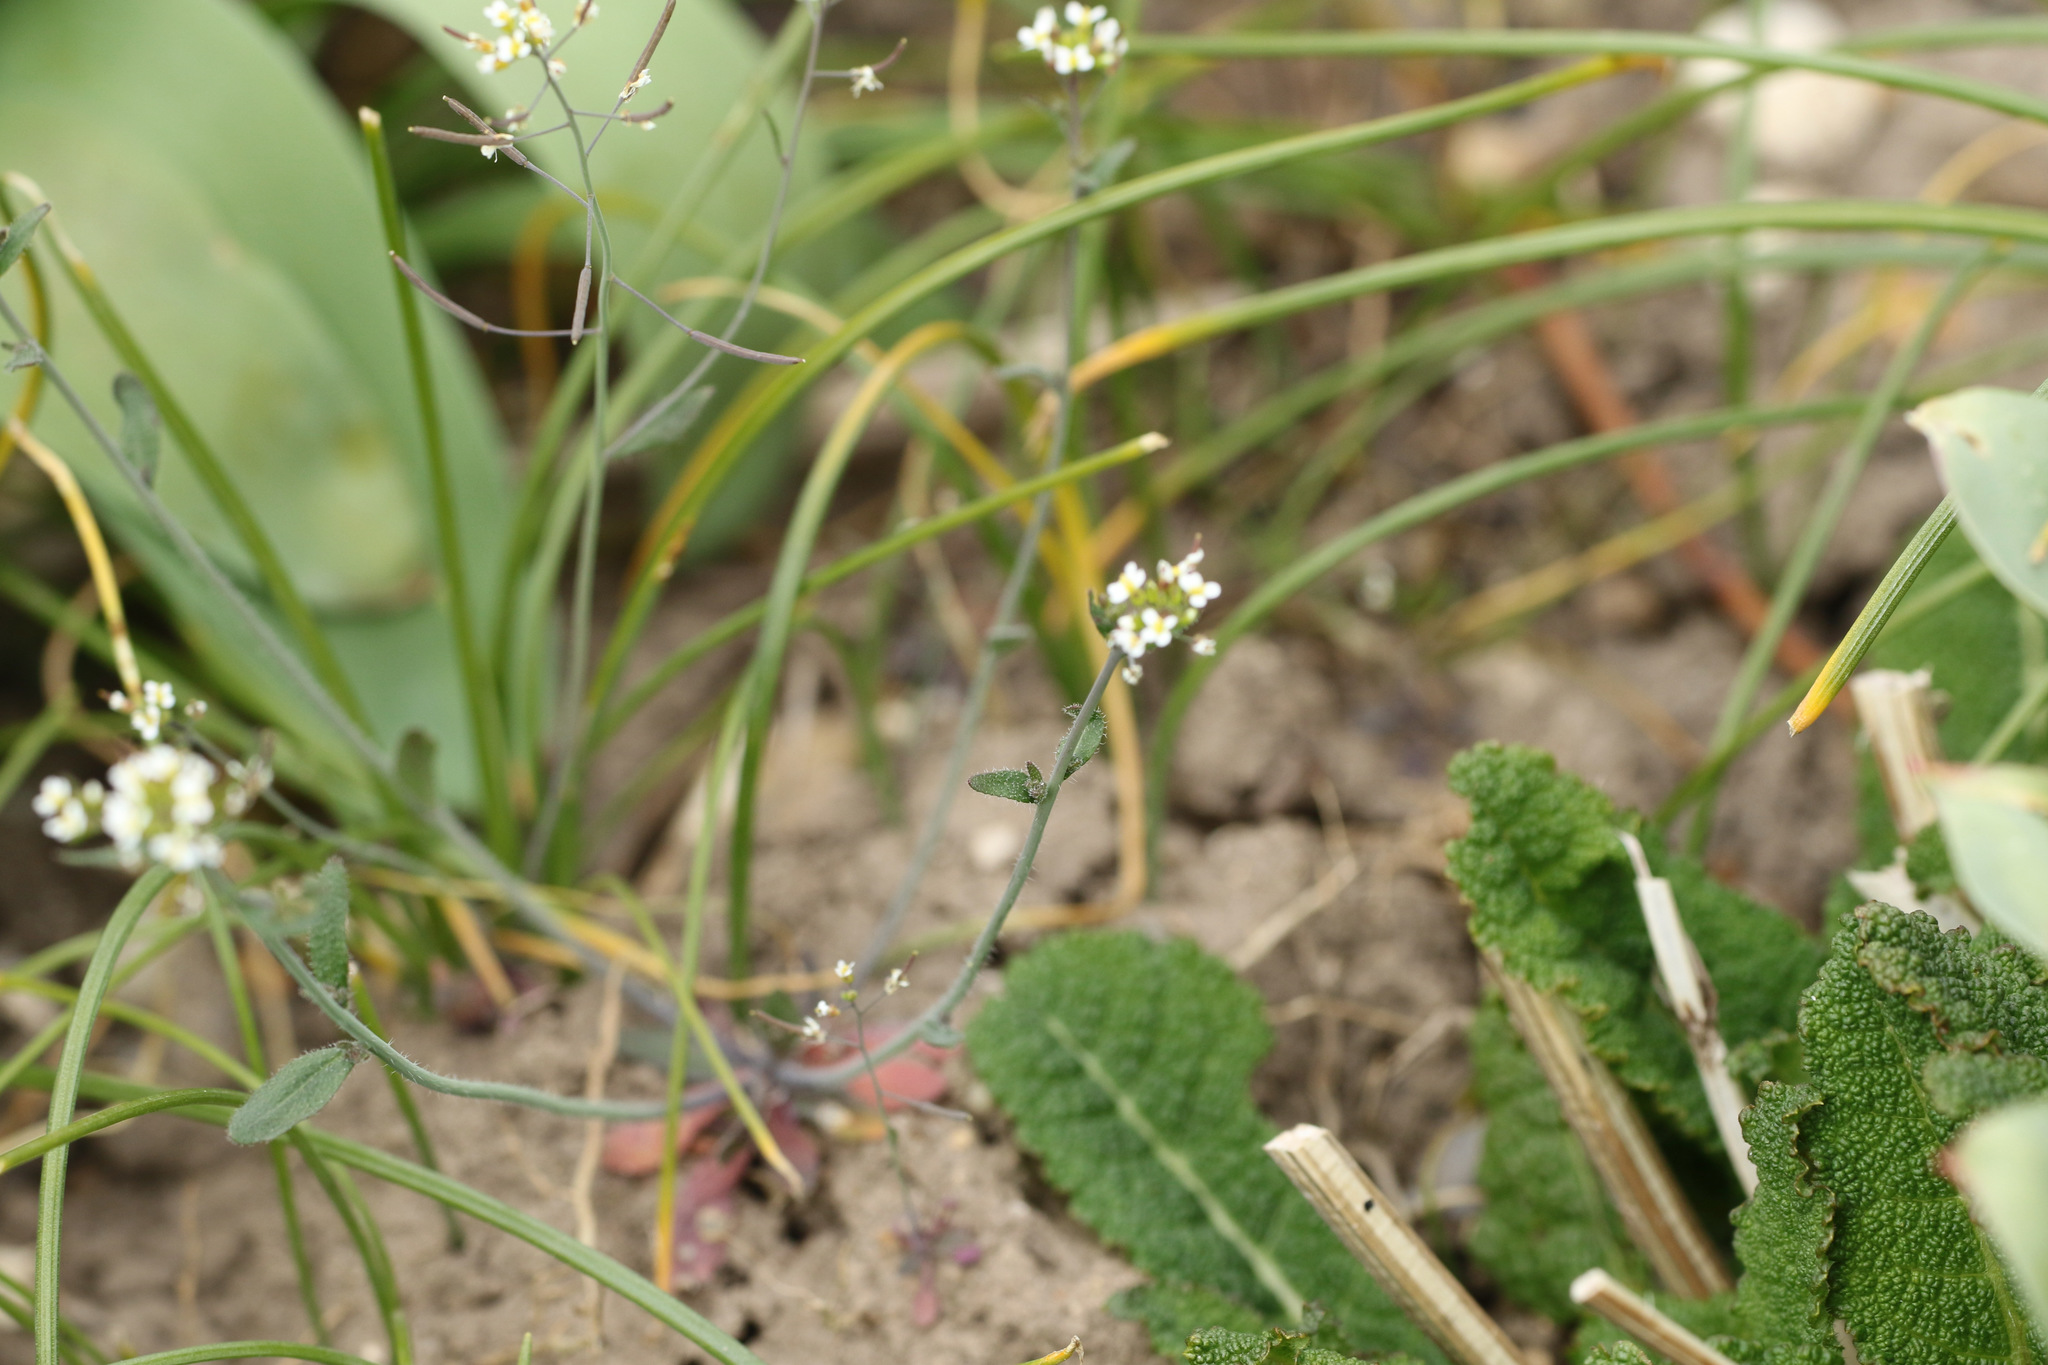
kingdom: Plantae
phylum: Tracheophyta
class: Magnoliopsida
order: Brassicales
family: Brassicaceae
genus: Arabidopsis
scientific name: Arabidopsis thaliana
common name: Thale cress
